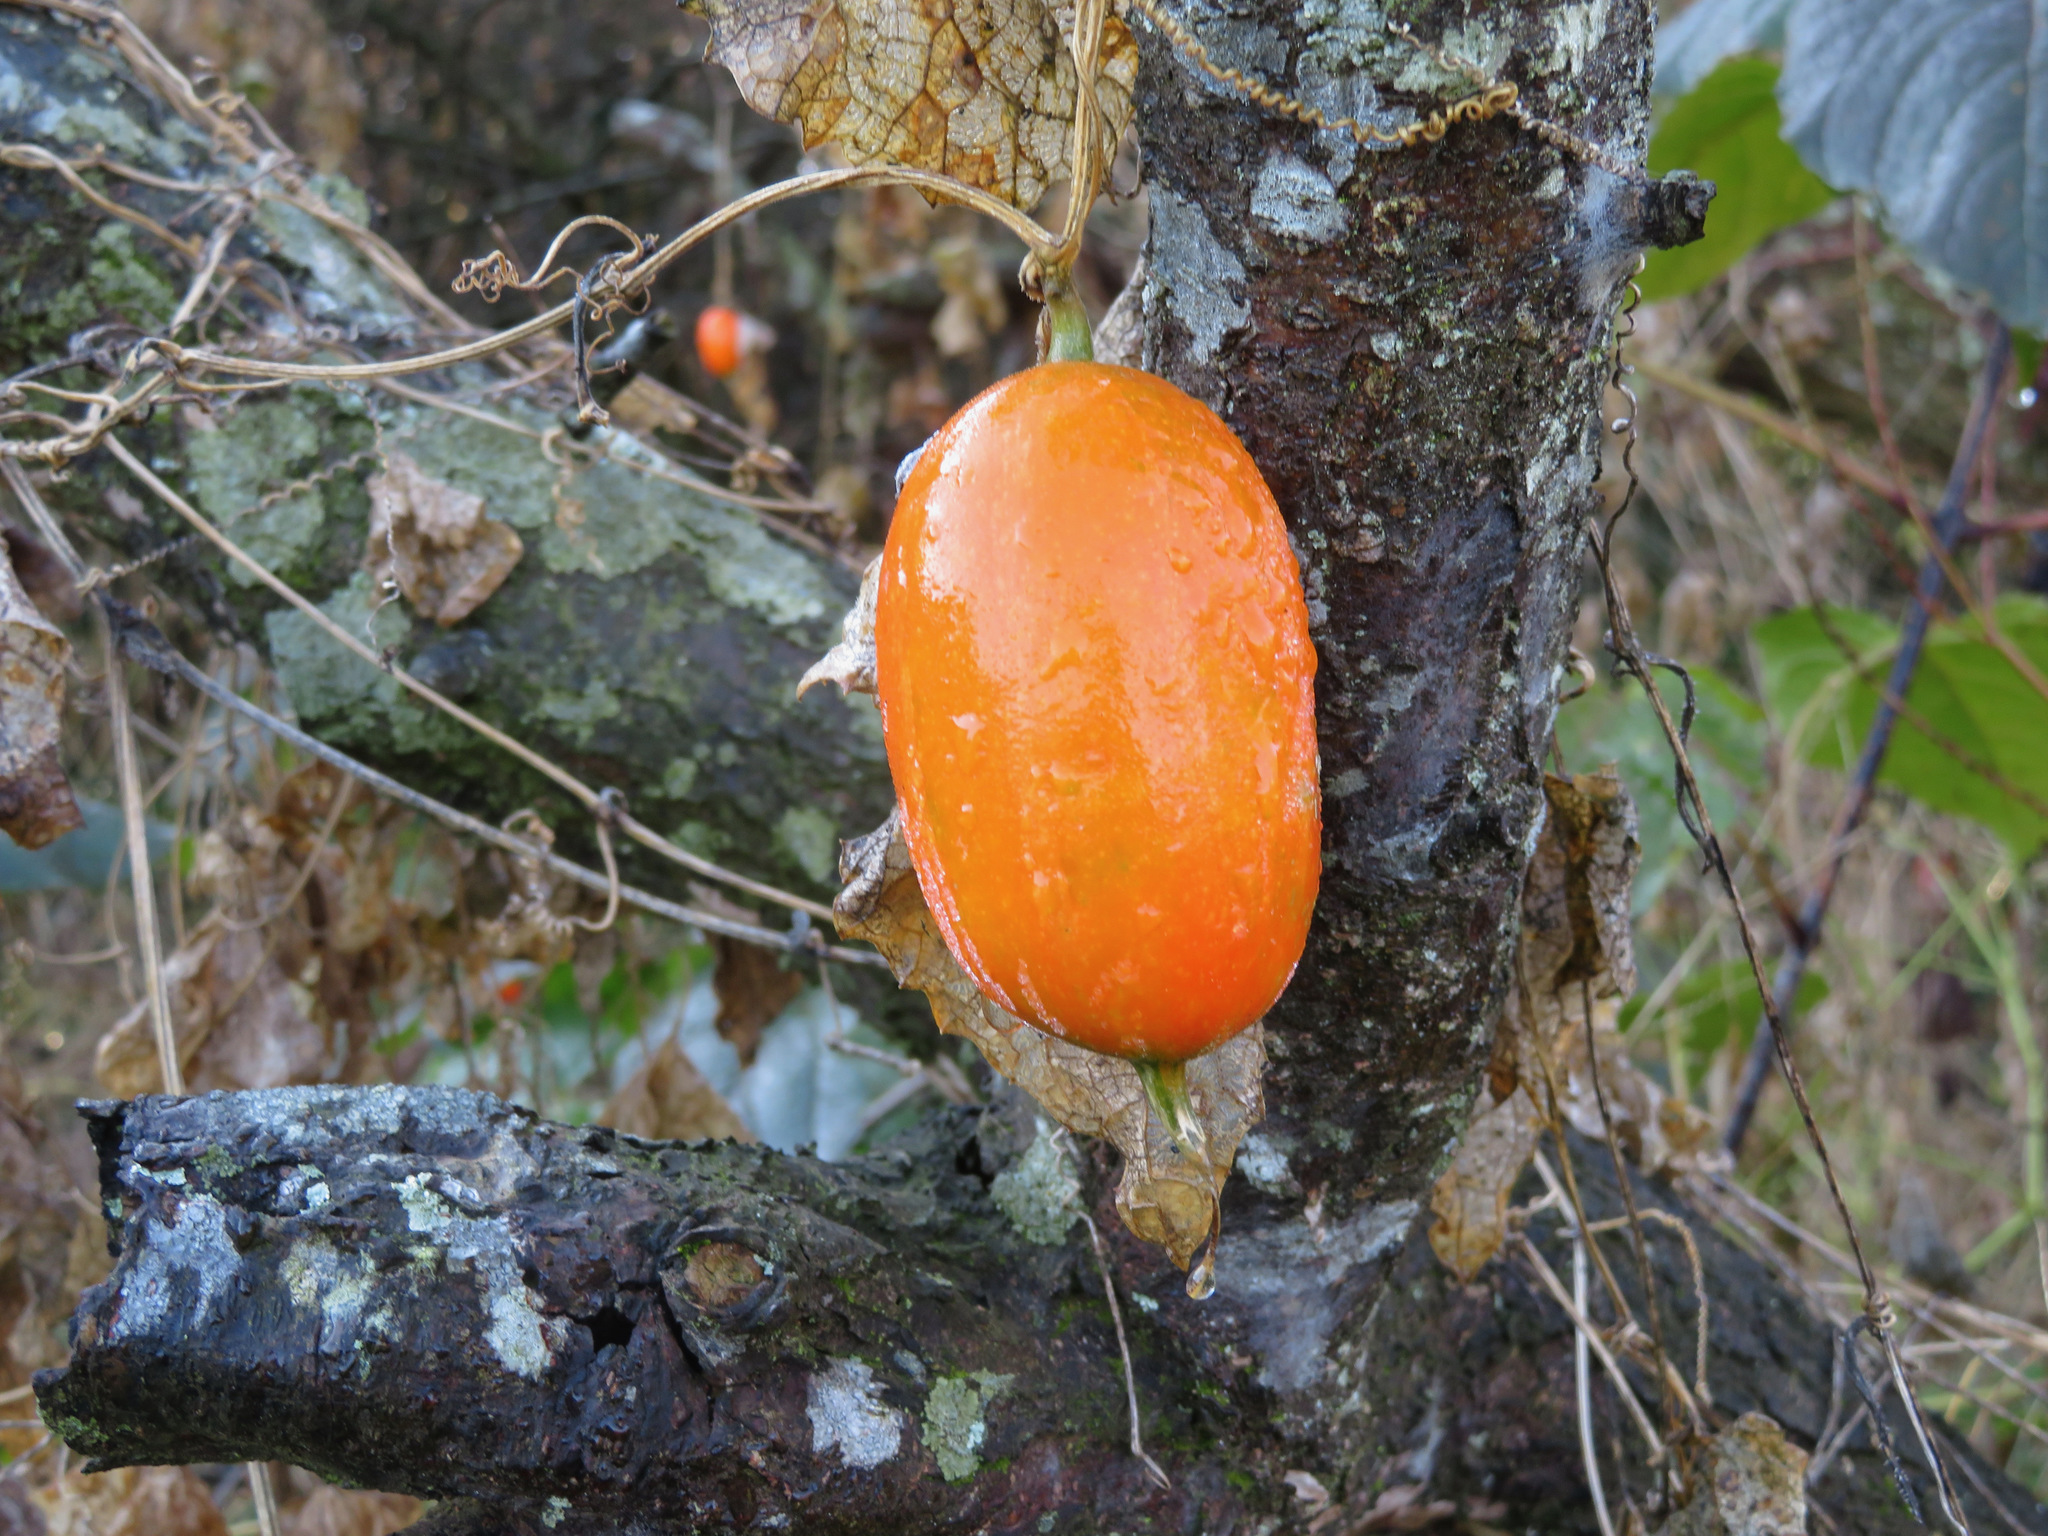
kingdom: Plantae
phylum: Tracheophyta
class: Magnoliopsida
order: Cucurbitales
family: Cucurbitaceae
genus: Trichosanthes
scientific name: Trichosanthes cucumeroides
